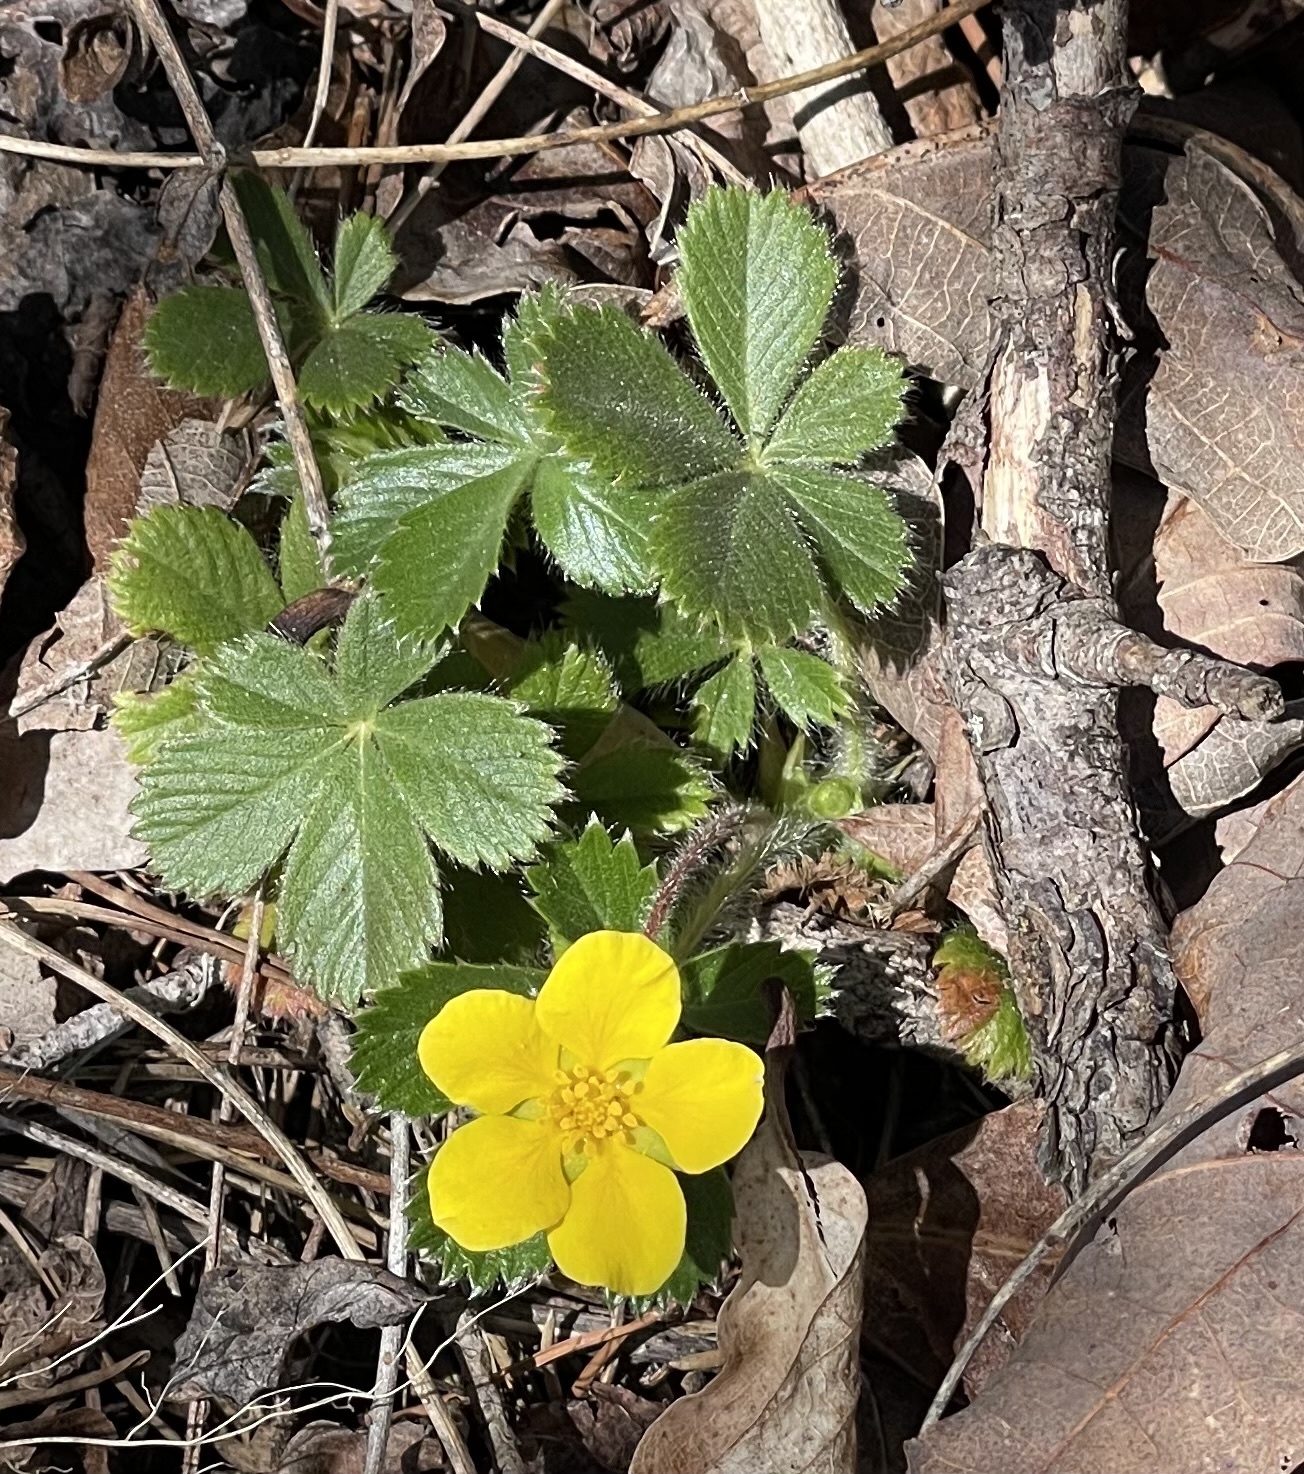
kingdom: Plantae
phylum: Tracheophyta
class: Magnoliopsida
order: Rosales
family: Rosaceae
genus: Potentilla
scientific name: Potentilla canadensis
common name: Canada cinquefoil
